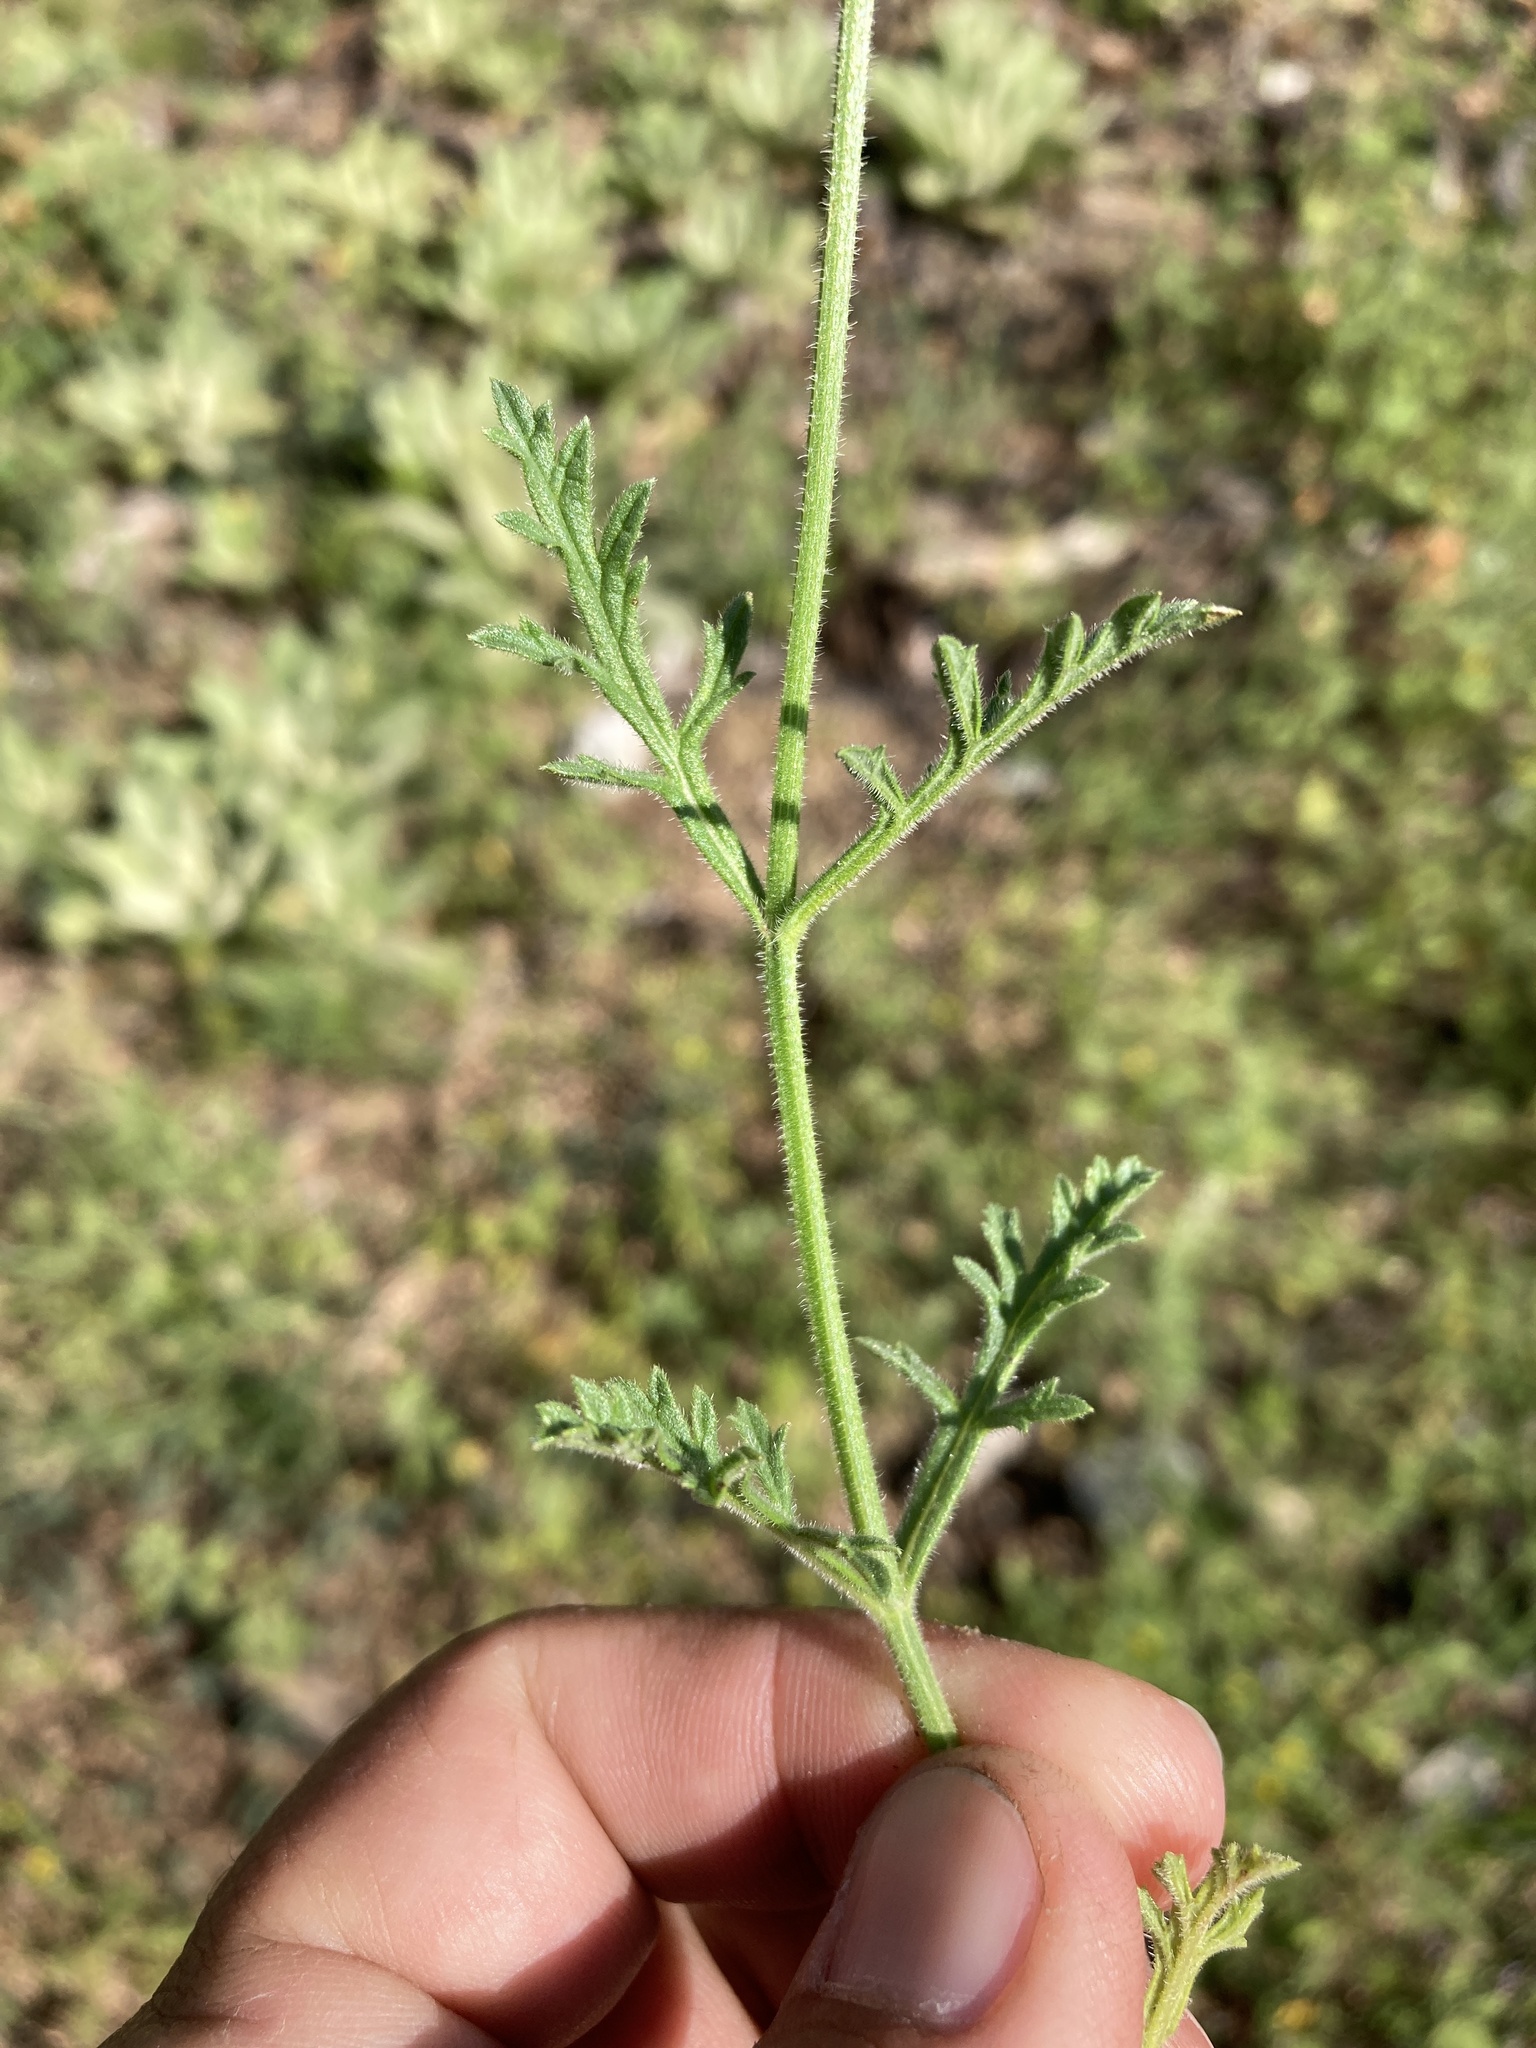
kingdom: Plantae
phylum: Tracheophyta
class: Magnoliopsida
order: Lamiales
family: Verbenaceae
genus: Verbena
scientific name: Verbena neomexicana
